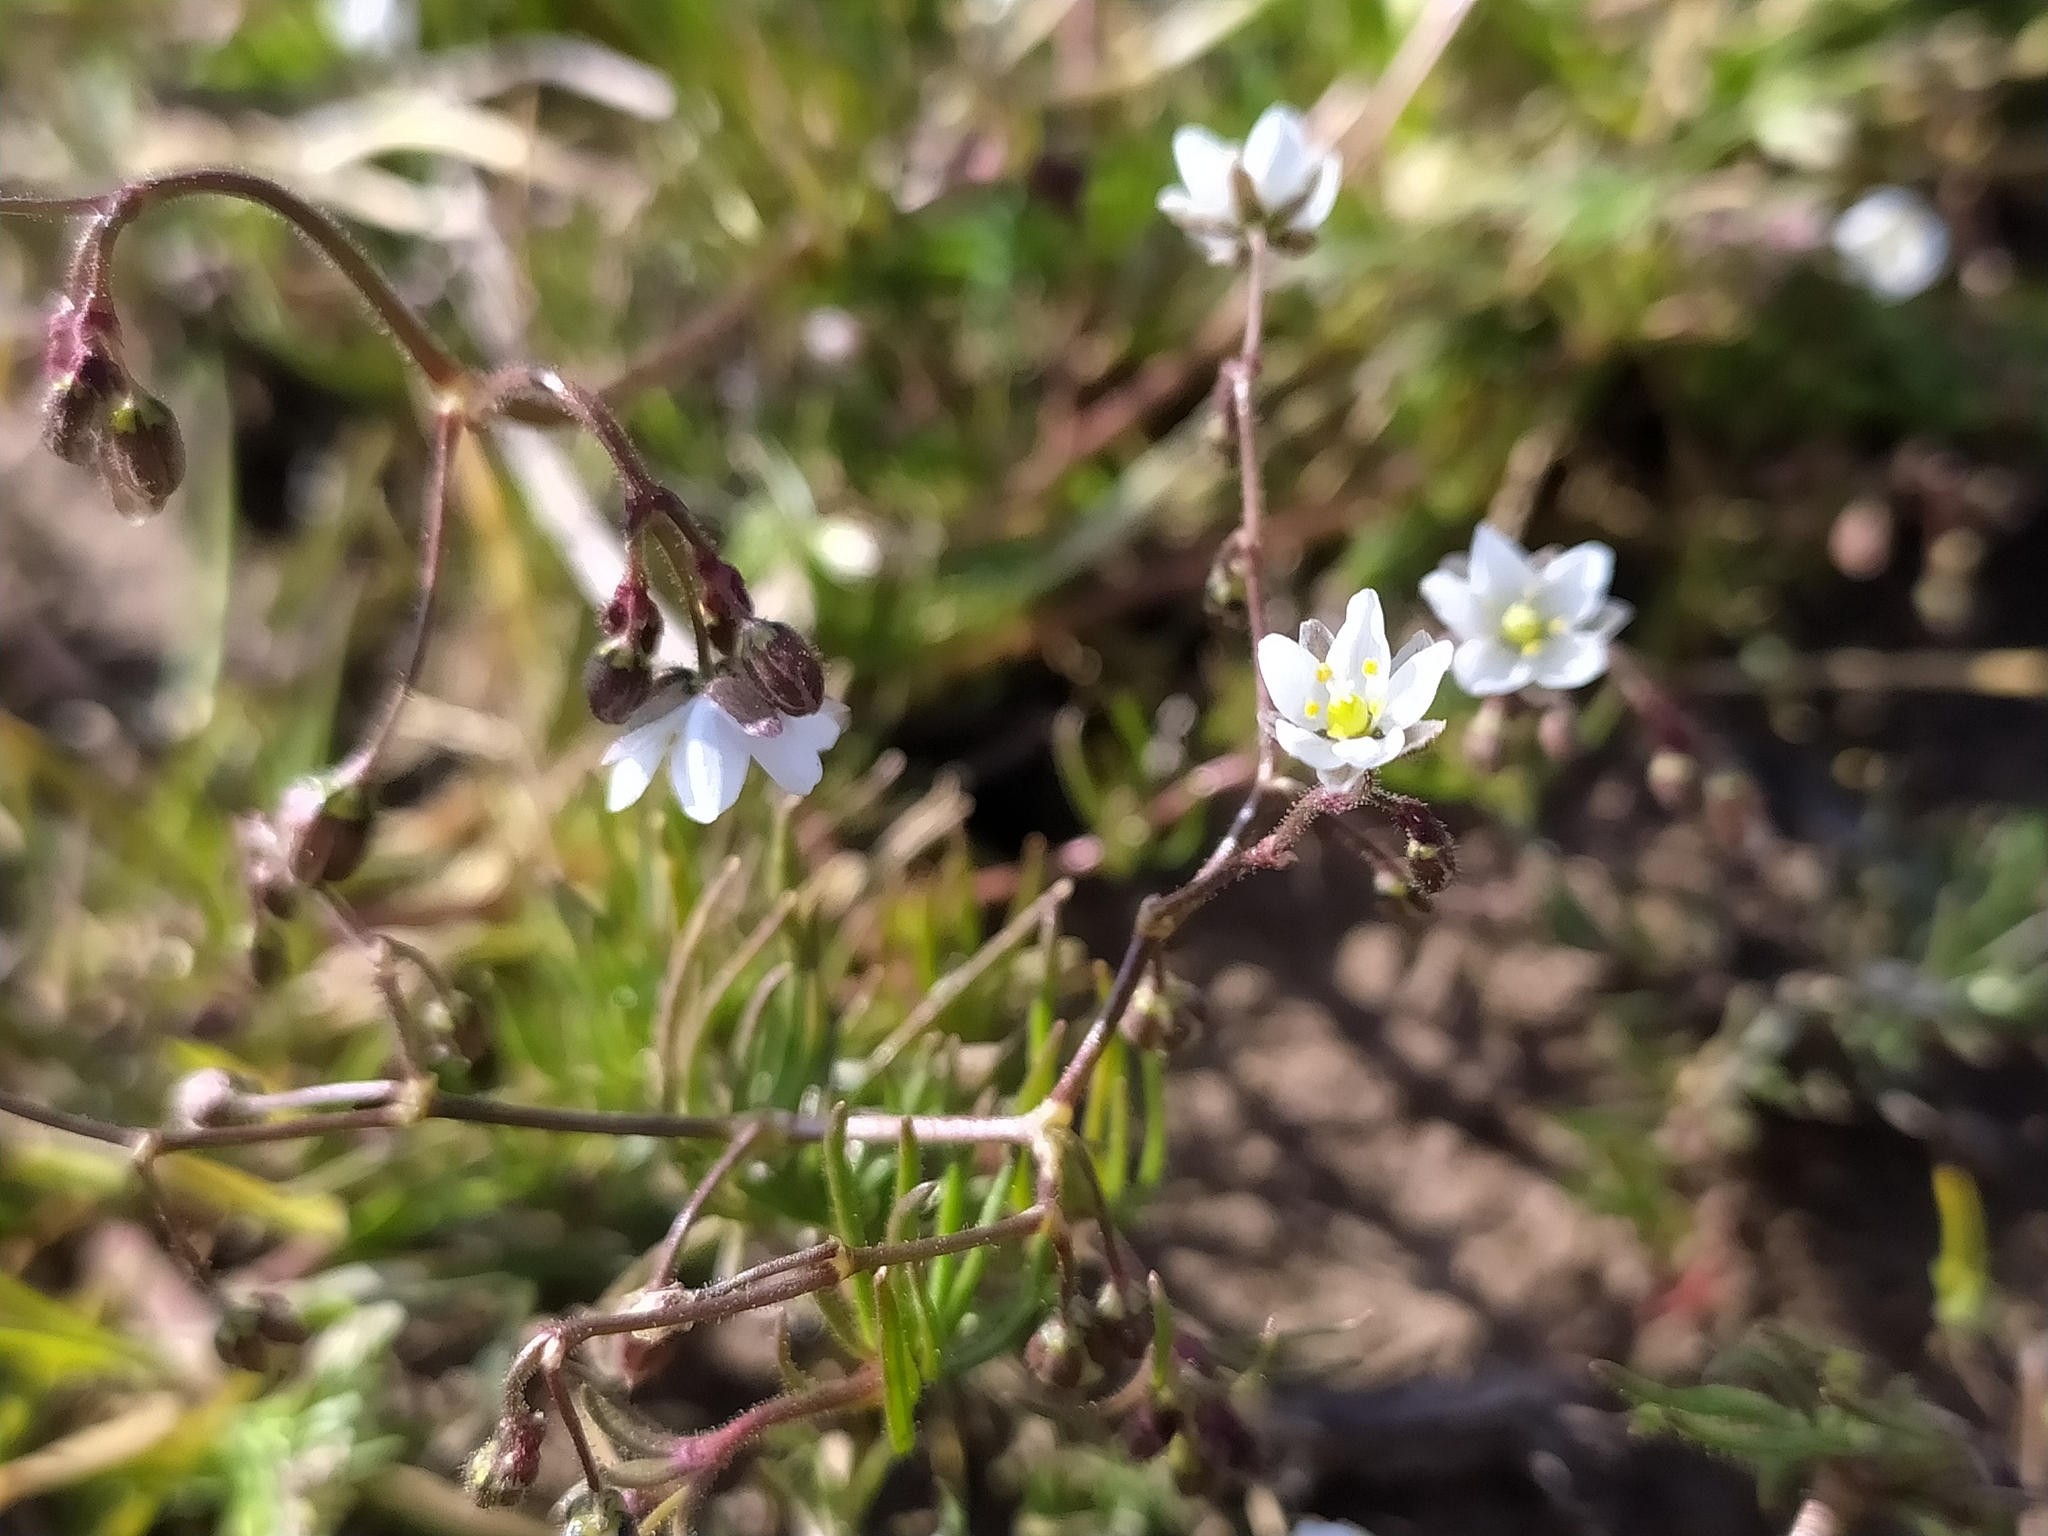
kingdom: Plantae
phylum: Tracheophyta
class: Magnoliopsida
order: Caryophyllales
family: Caryophyllaceae
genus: Spergula
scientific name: Spergula arvensis
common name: Corn spurrey
